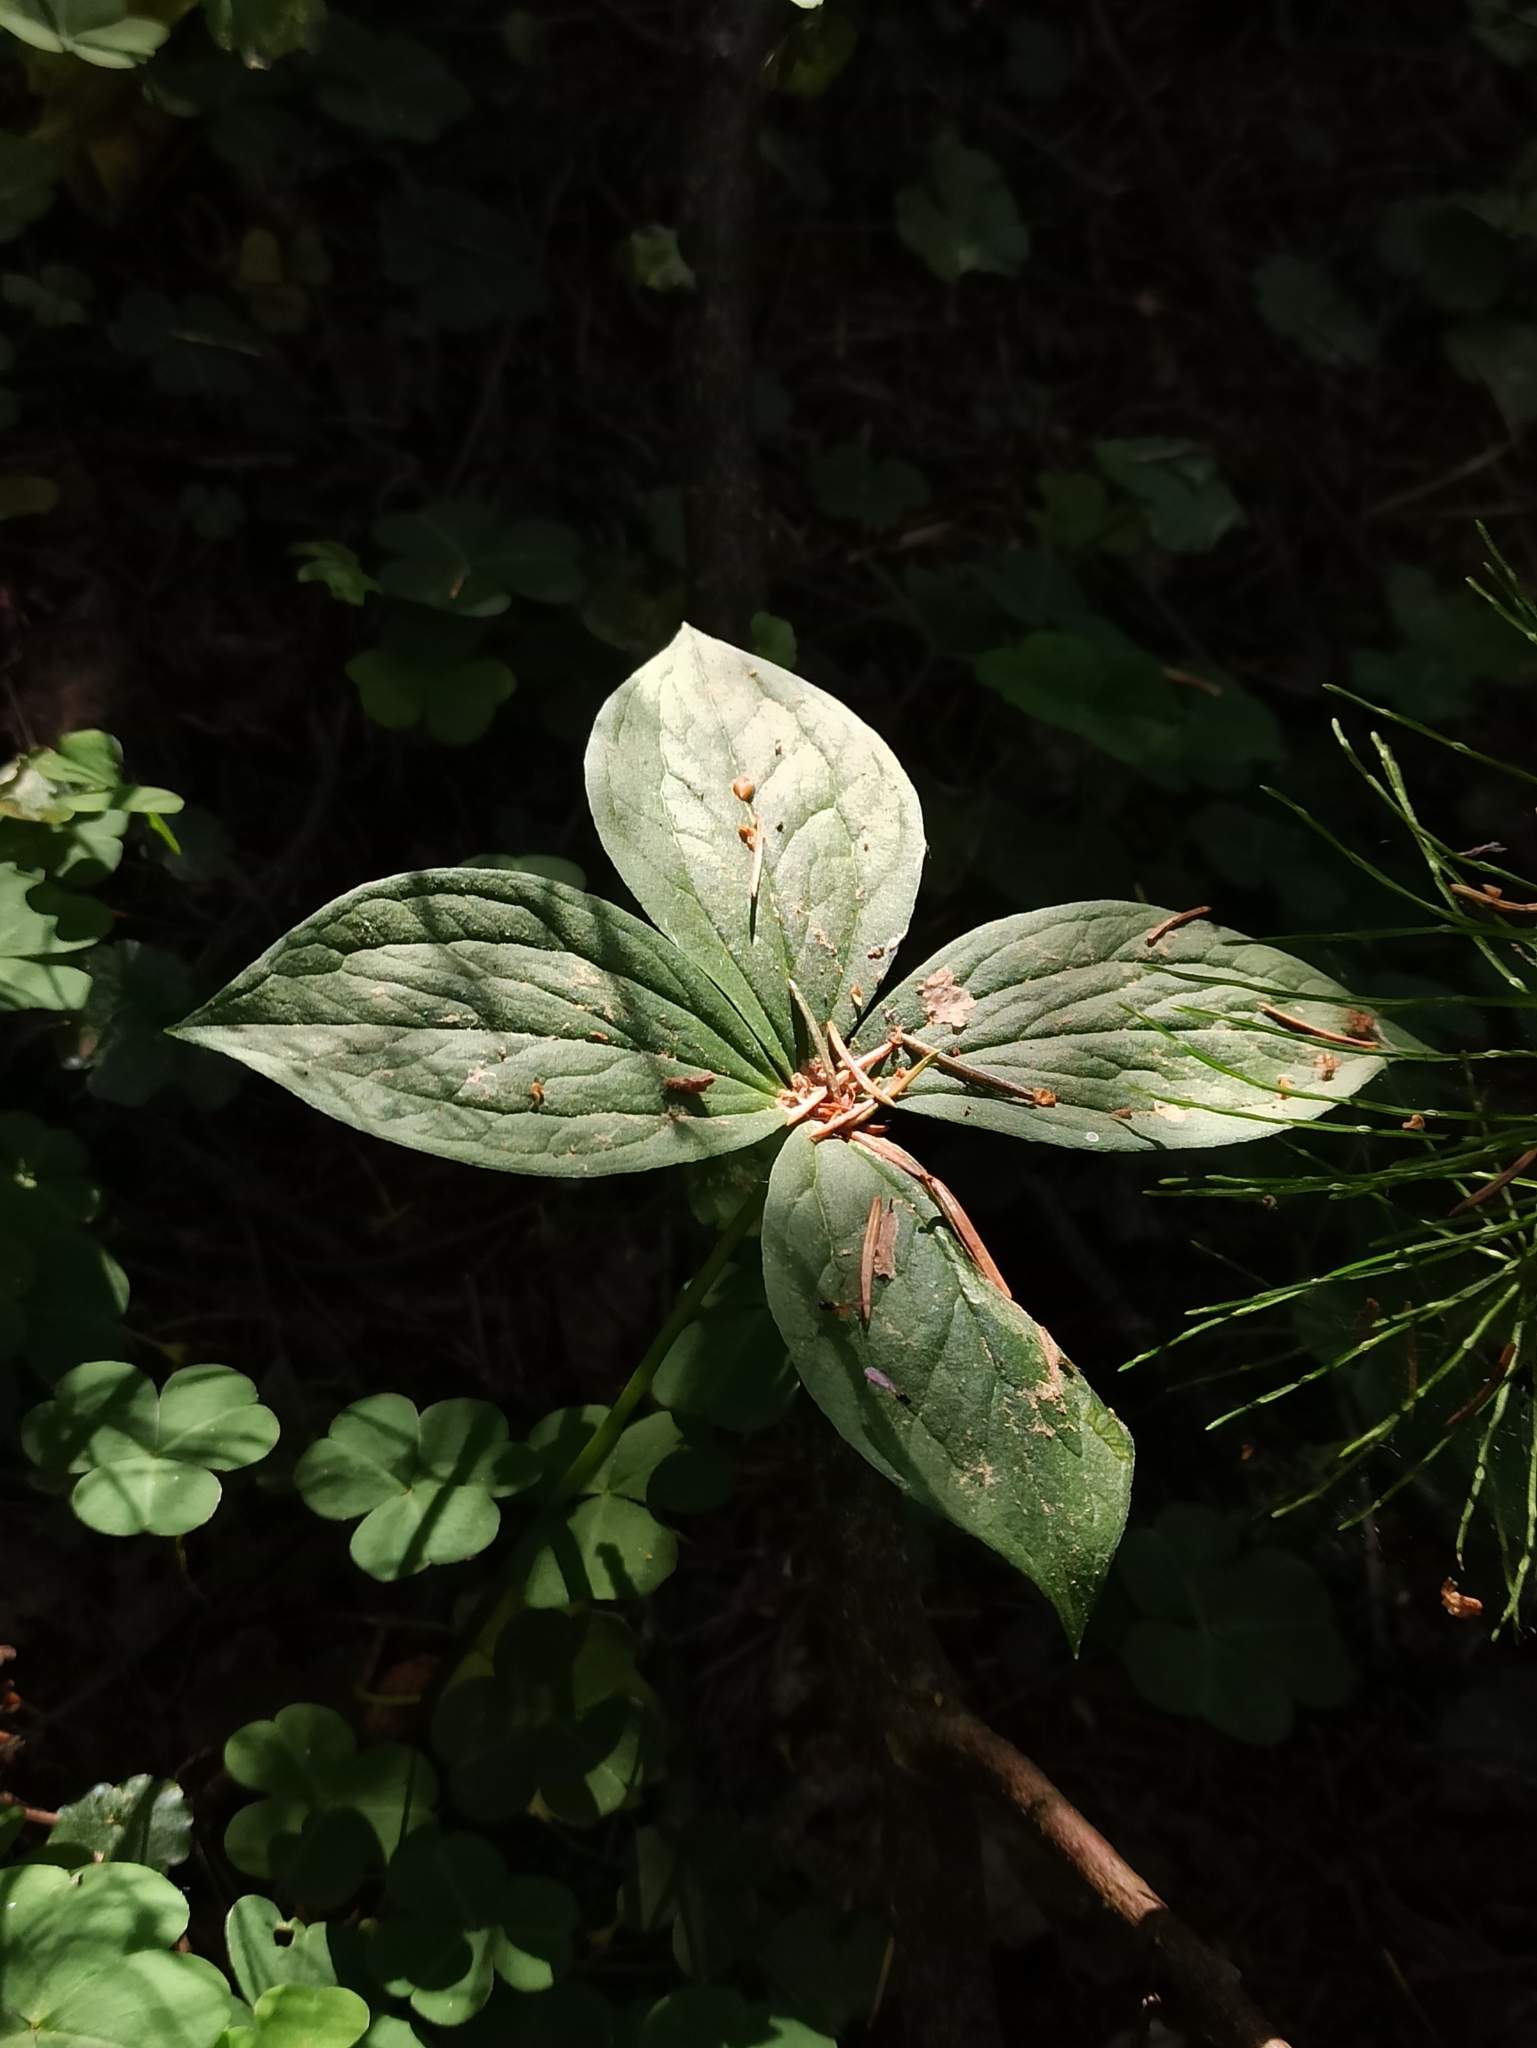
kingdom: Plantae
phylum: Tracheophyta
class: Liliopsida
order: Liliales
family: Melanthiaceae
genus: Paris
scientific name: Paris quadrifolia
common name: Herb-paris
